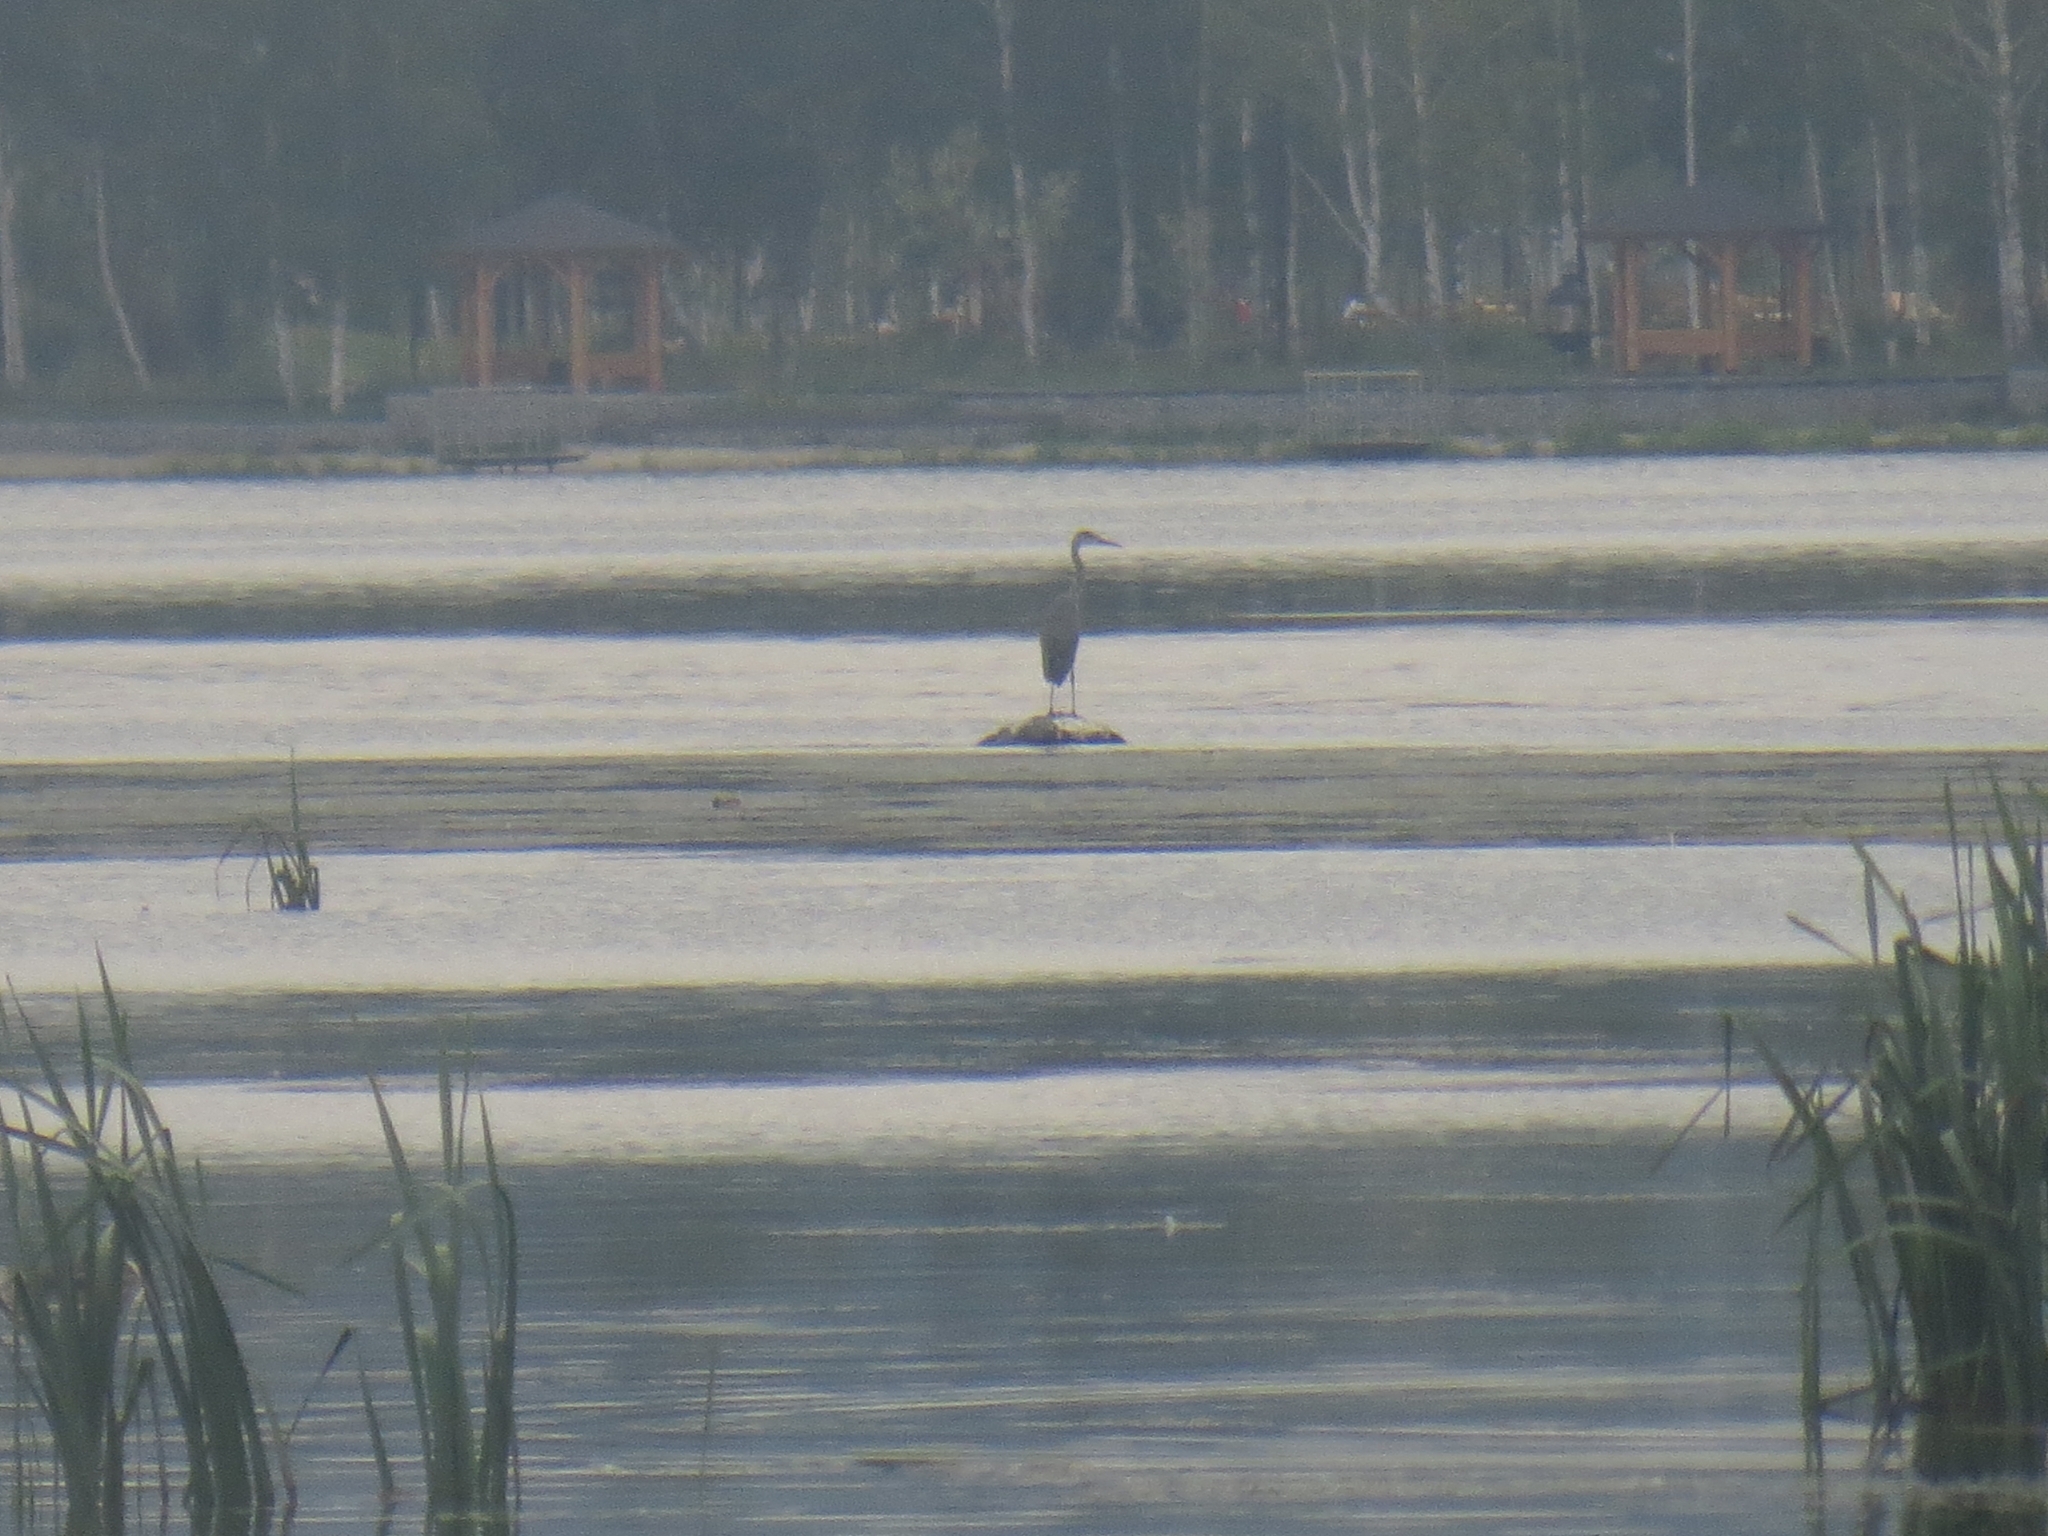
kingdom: Animalia
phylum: Chordata
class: Aves
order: Pelecaniformes
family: Ardeidae
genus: Ardea
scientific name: Ardea cinerea
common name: Grey heron
